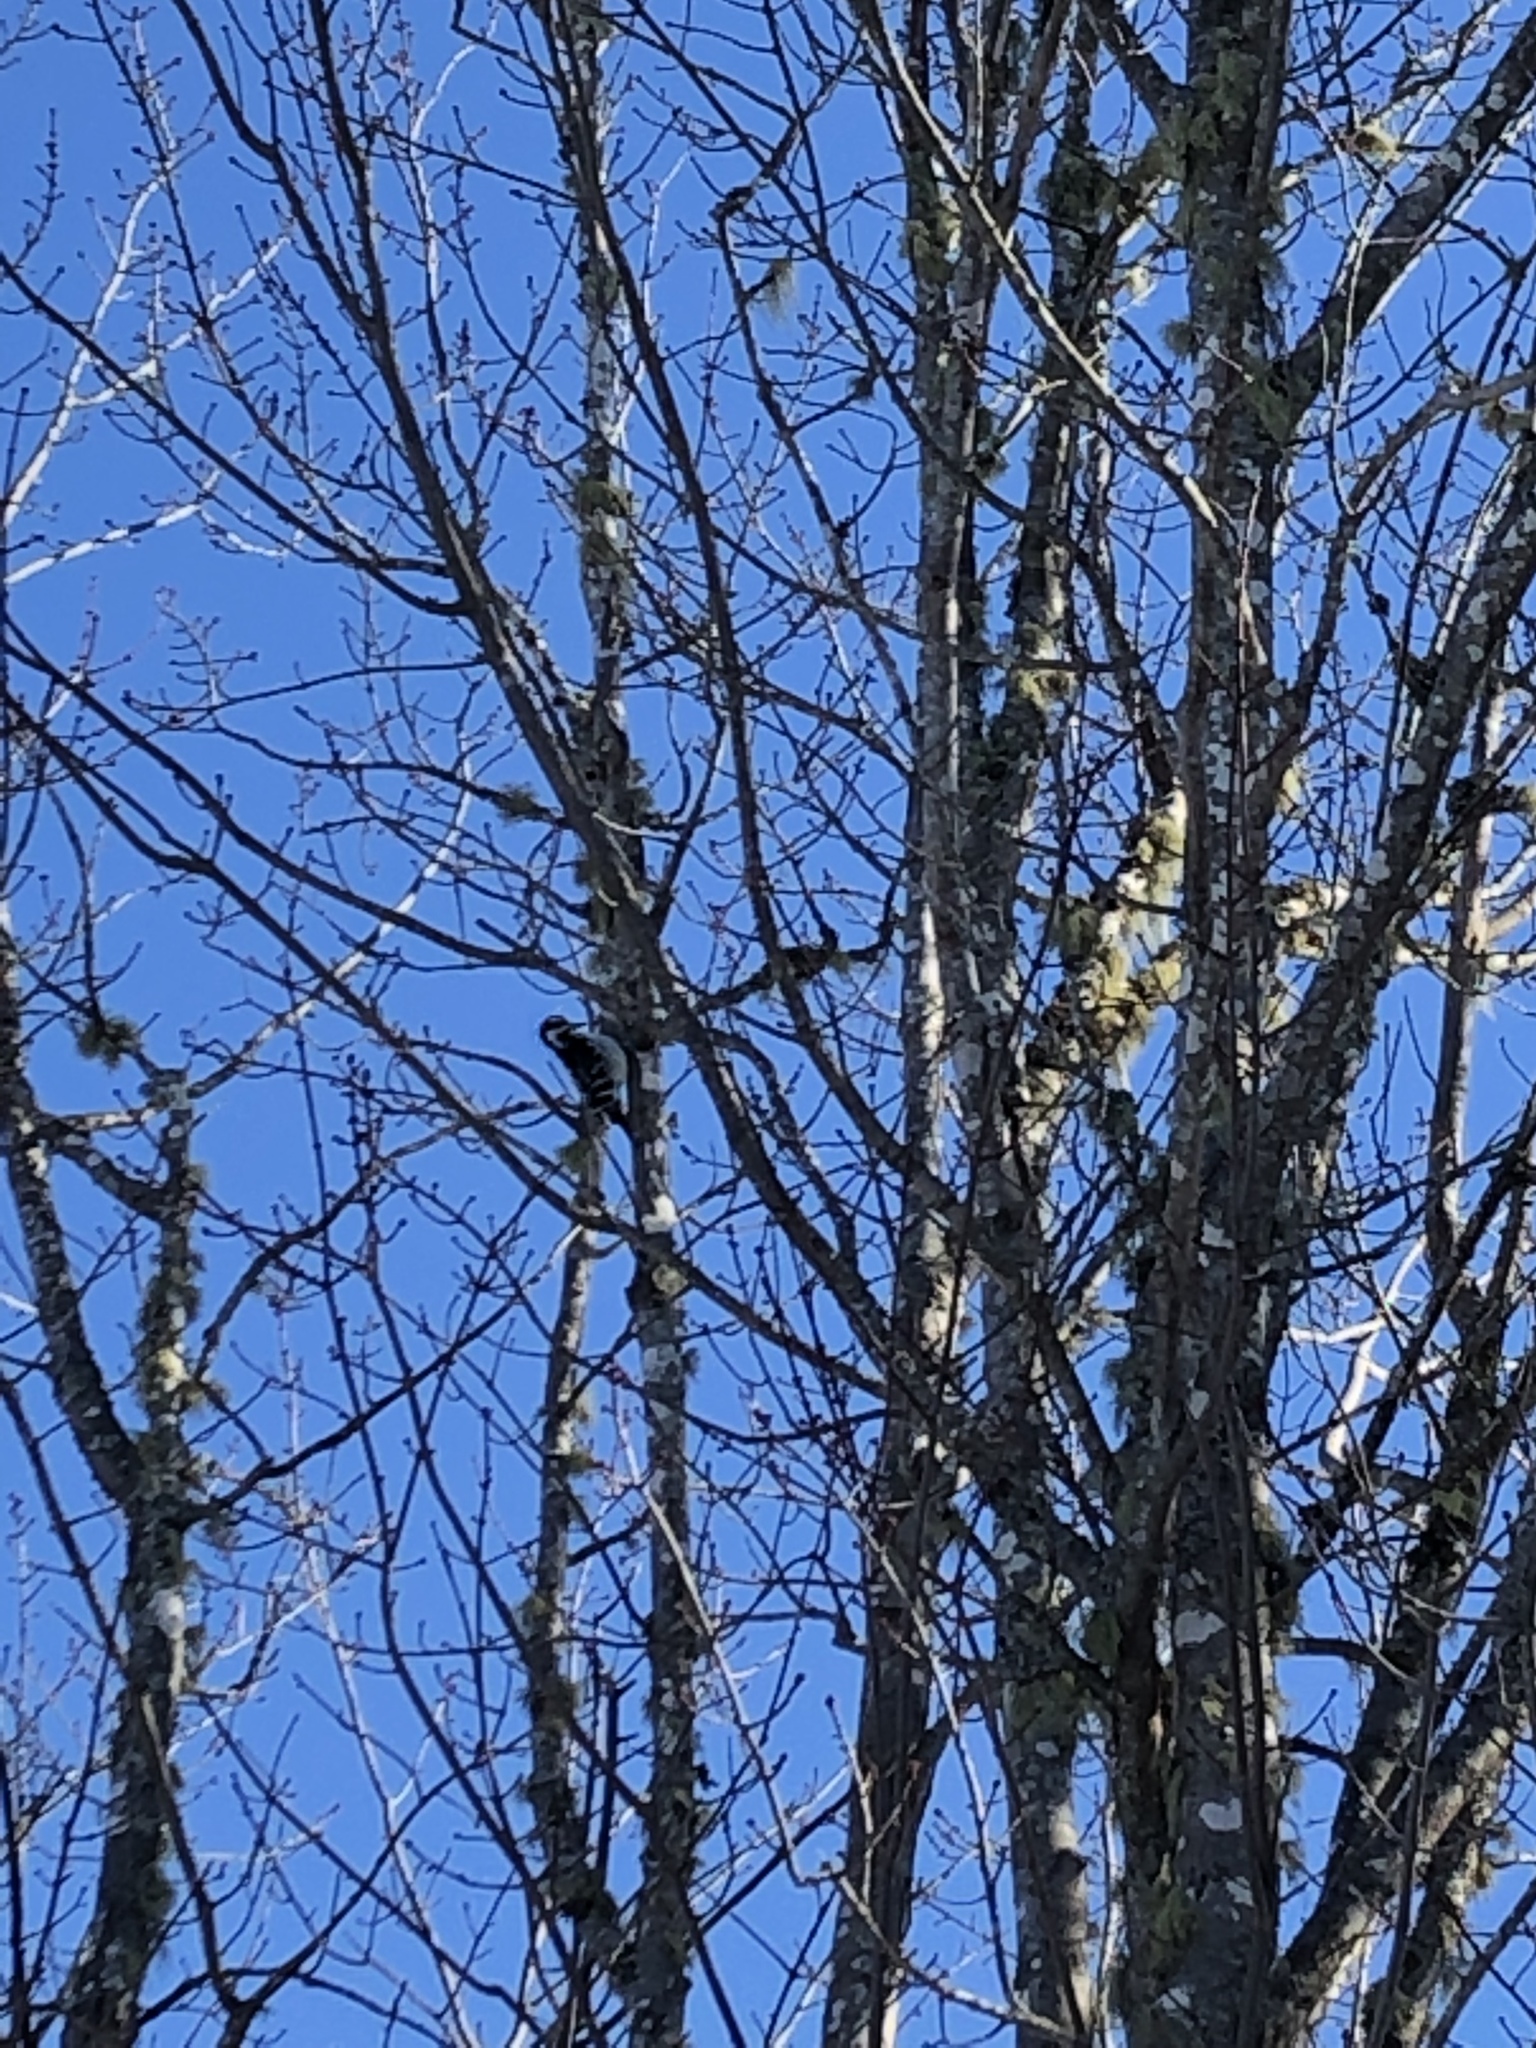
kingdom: Animalia
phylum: Chordata
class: Aves
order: Piciformes
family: Picidae
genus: Leuconotopicus
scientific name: Leuconotopicus villosus
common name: Hairy woodpecker
